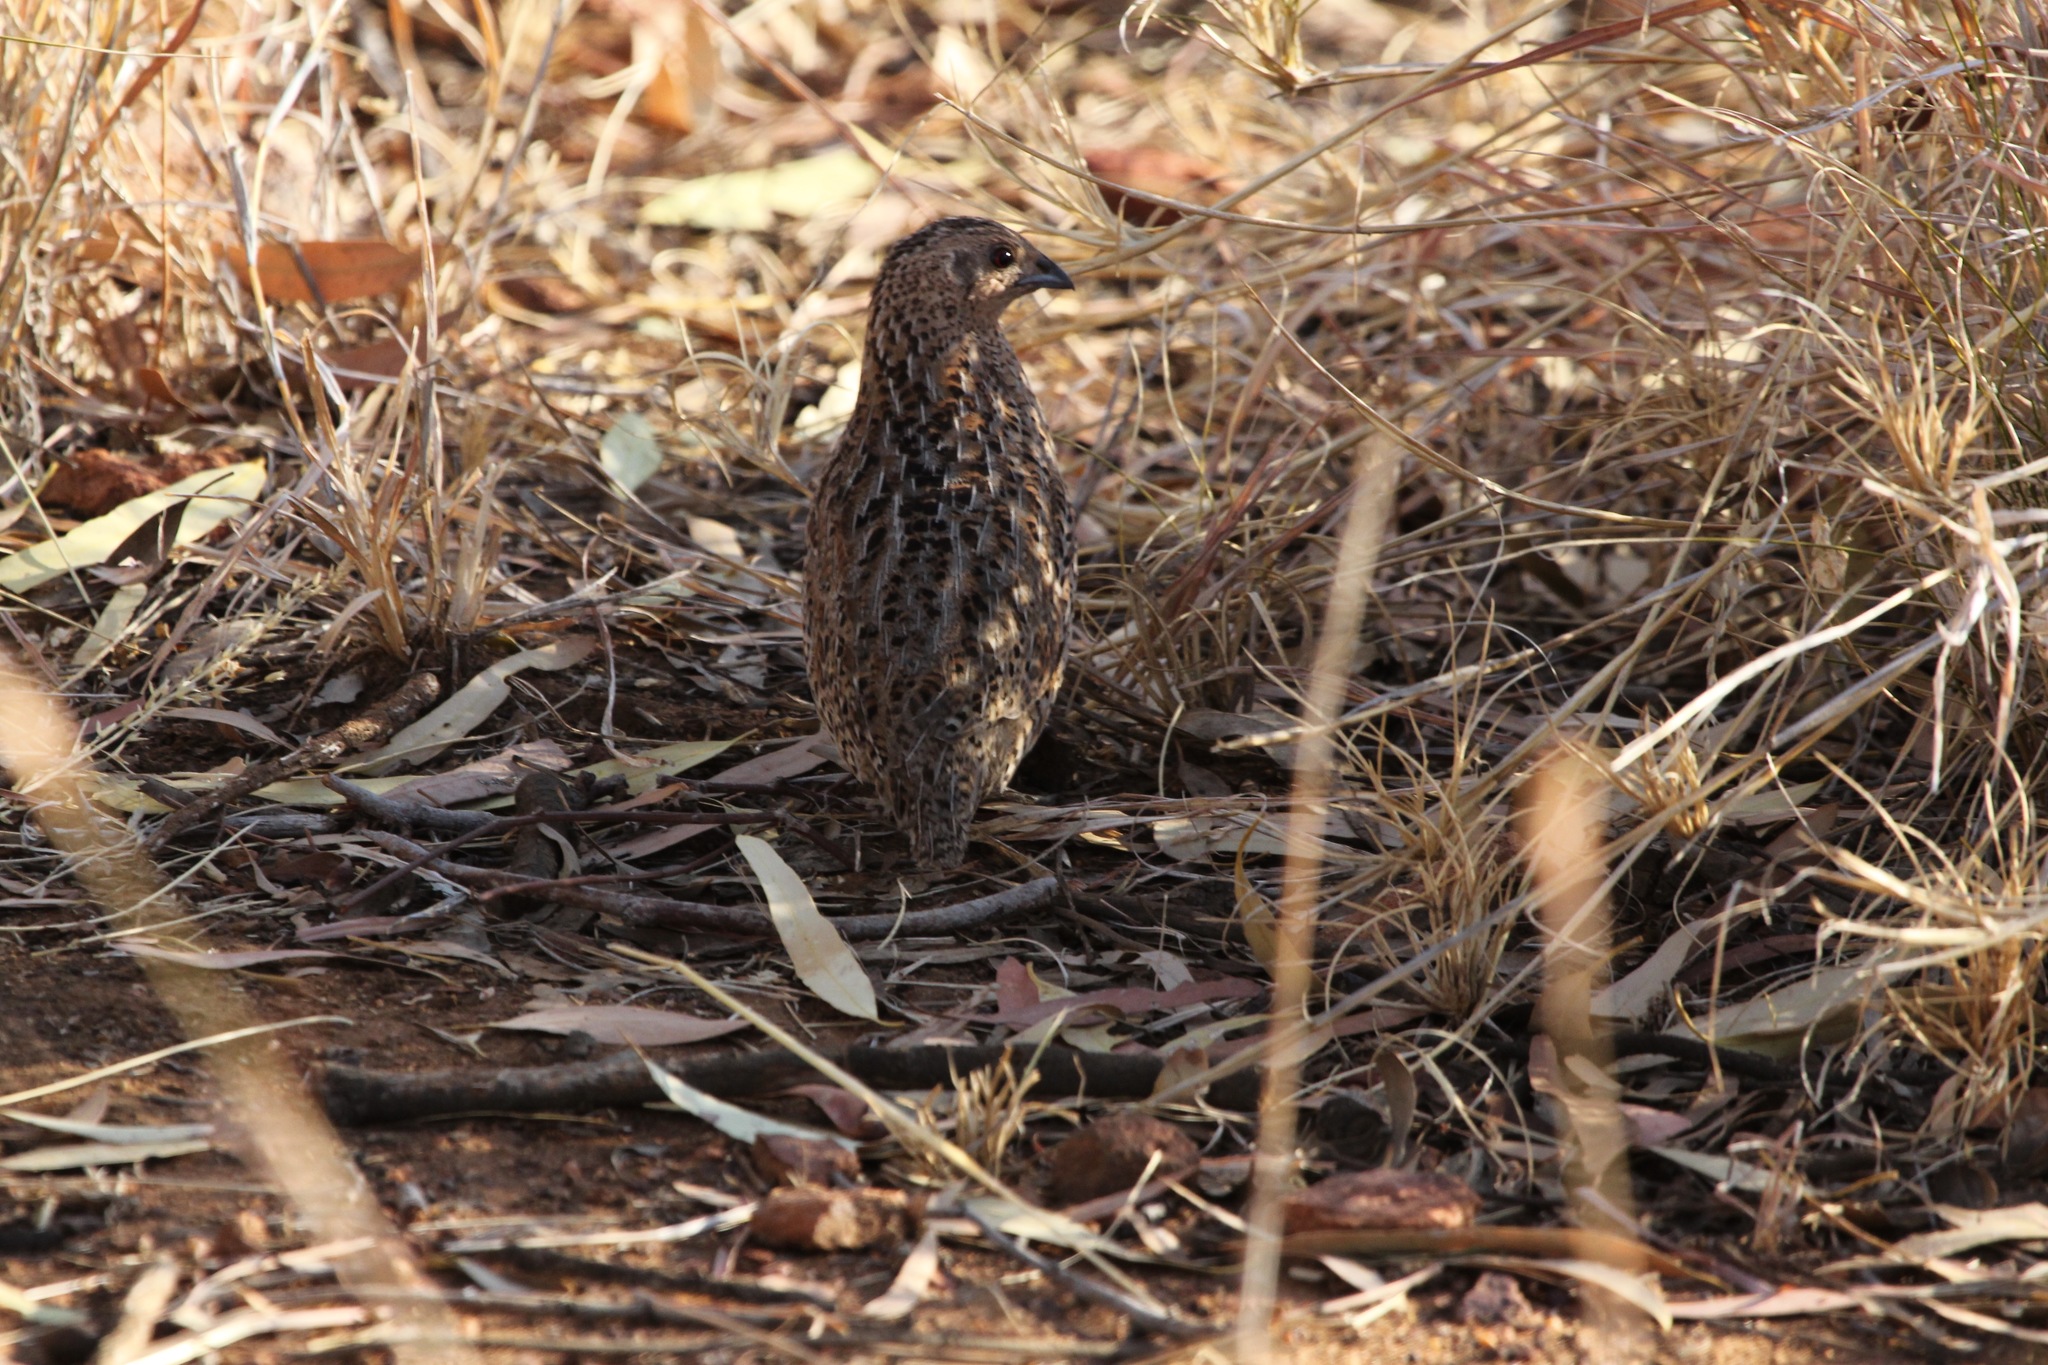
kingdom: Animalia
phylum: Chordata
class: Aves
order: Galliformes
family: Phasianidae
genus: Synoicus
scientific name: Synoicus ypsilophorus
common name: Brown quail
